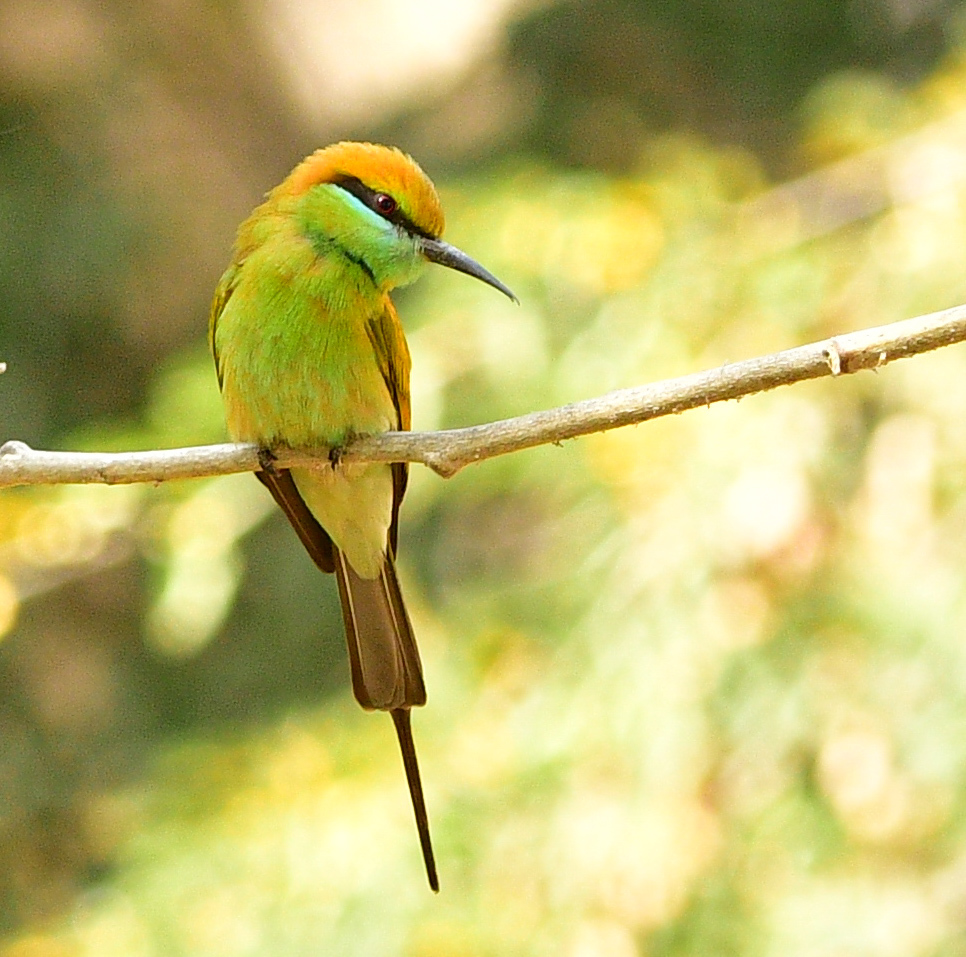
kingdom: Animalia
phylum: Chordata
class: Aves
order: Coraciiformes
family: Meropidae
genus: Merops
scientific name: Merops orientalis
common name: Green bee-eater
